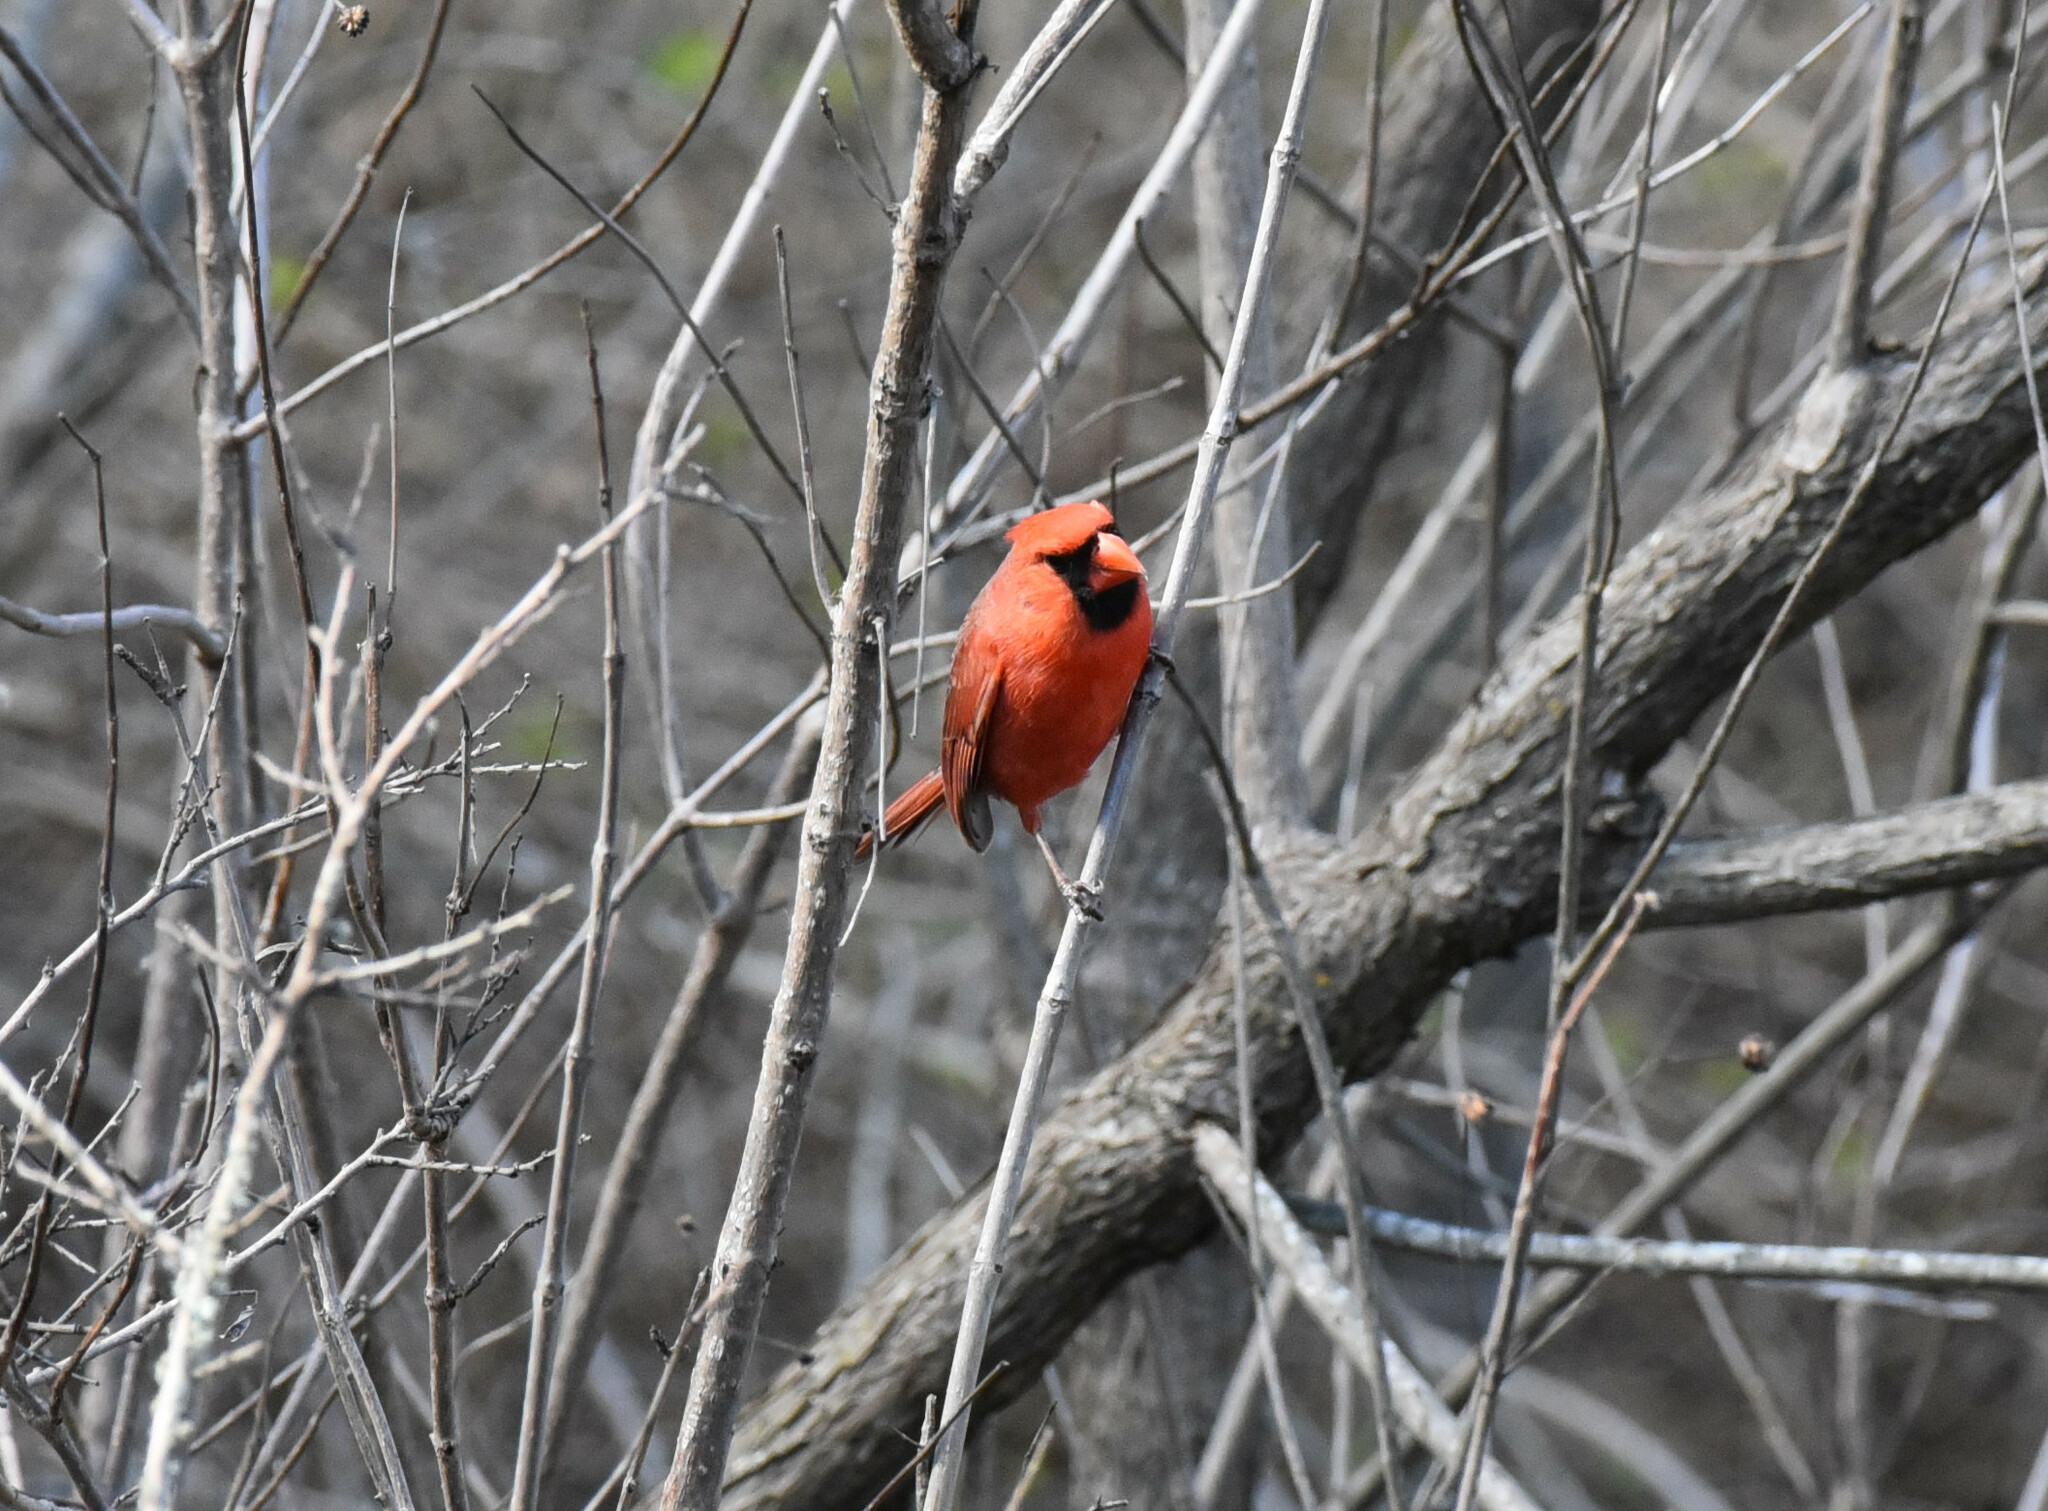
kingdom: Animalia
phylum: Chordata
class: Aves
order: Passeriformes
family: Cardinalidae
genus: Cardinalis
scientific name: Cardinalis cardinalis
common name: Northern cardinal
